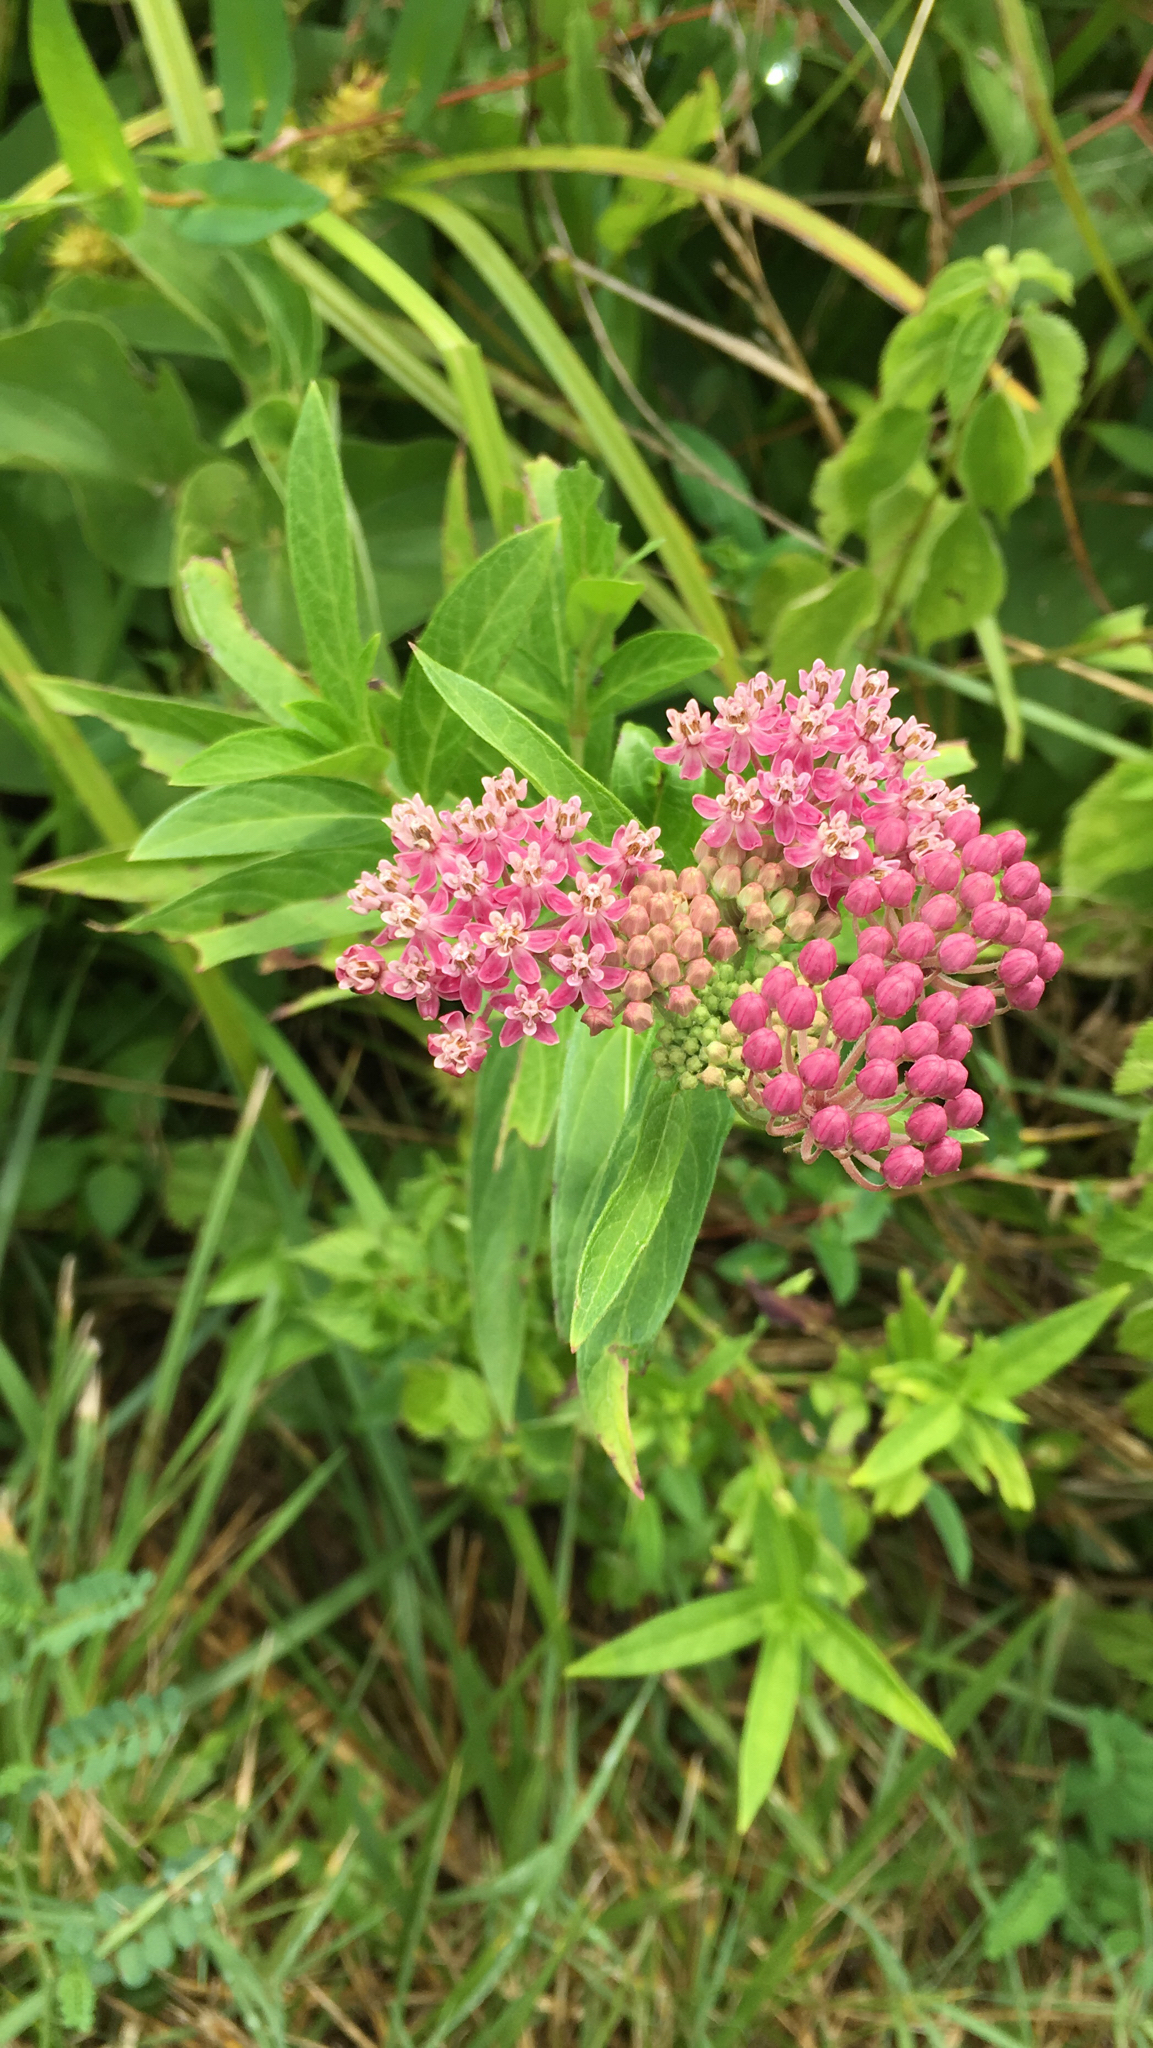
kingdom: Plantae
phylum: Tracheophyta
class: Magnoliopsida
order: Gentianales
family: Apocynaceae
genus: Asclepias
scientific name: Asclepias incarnata
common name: Swamp milkweed
